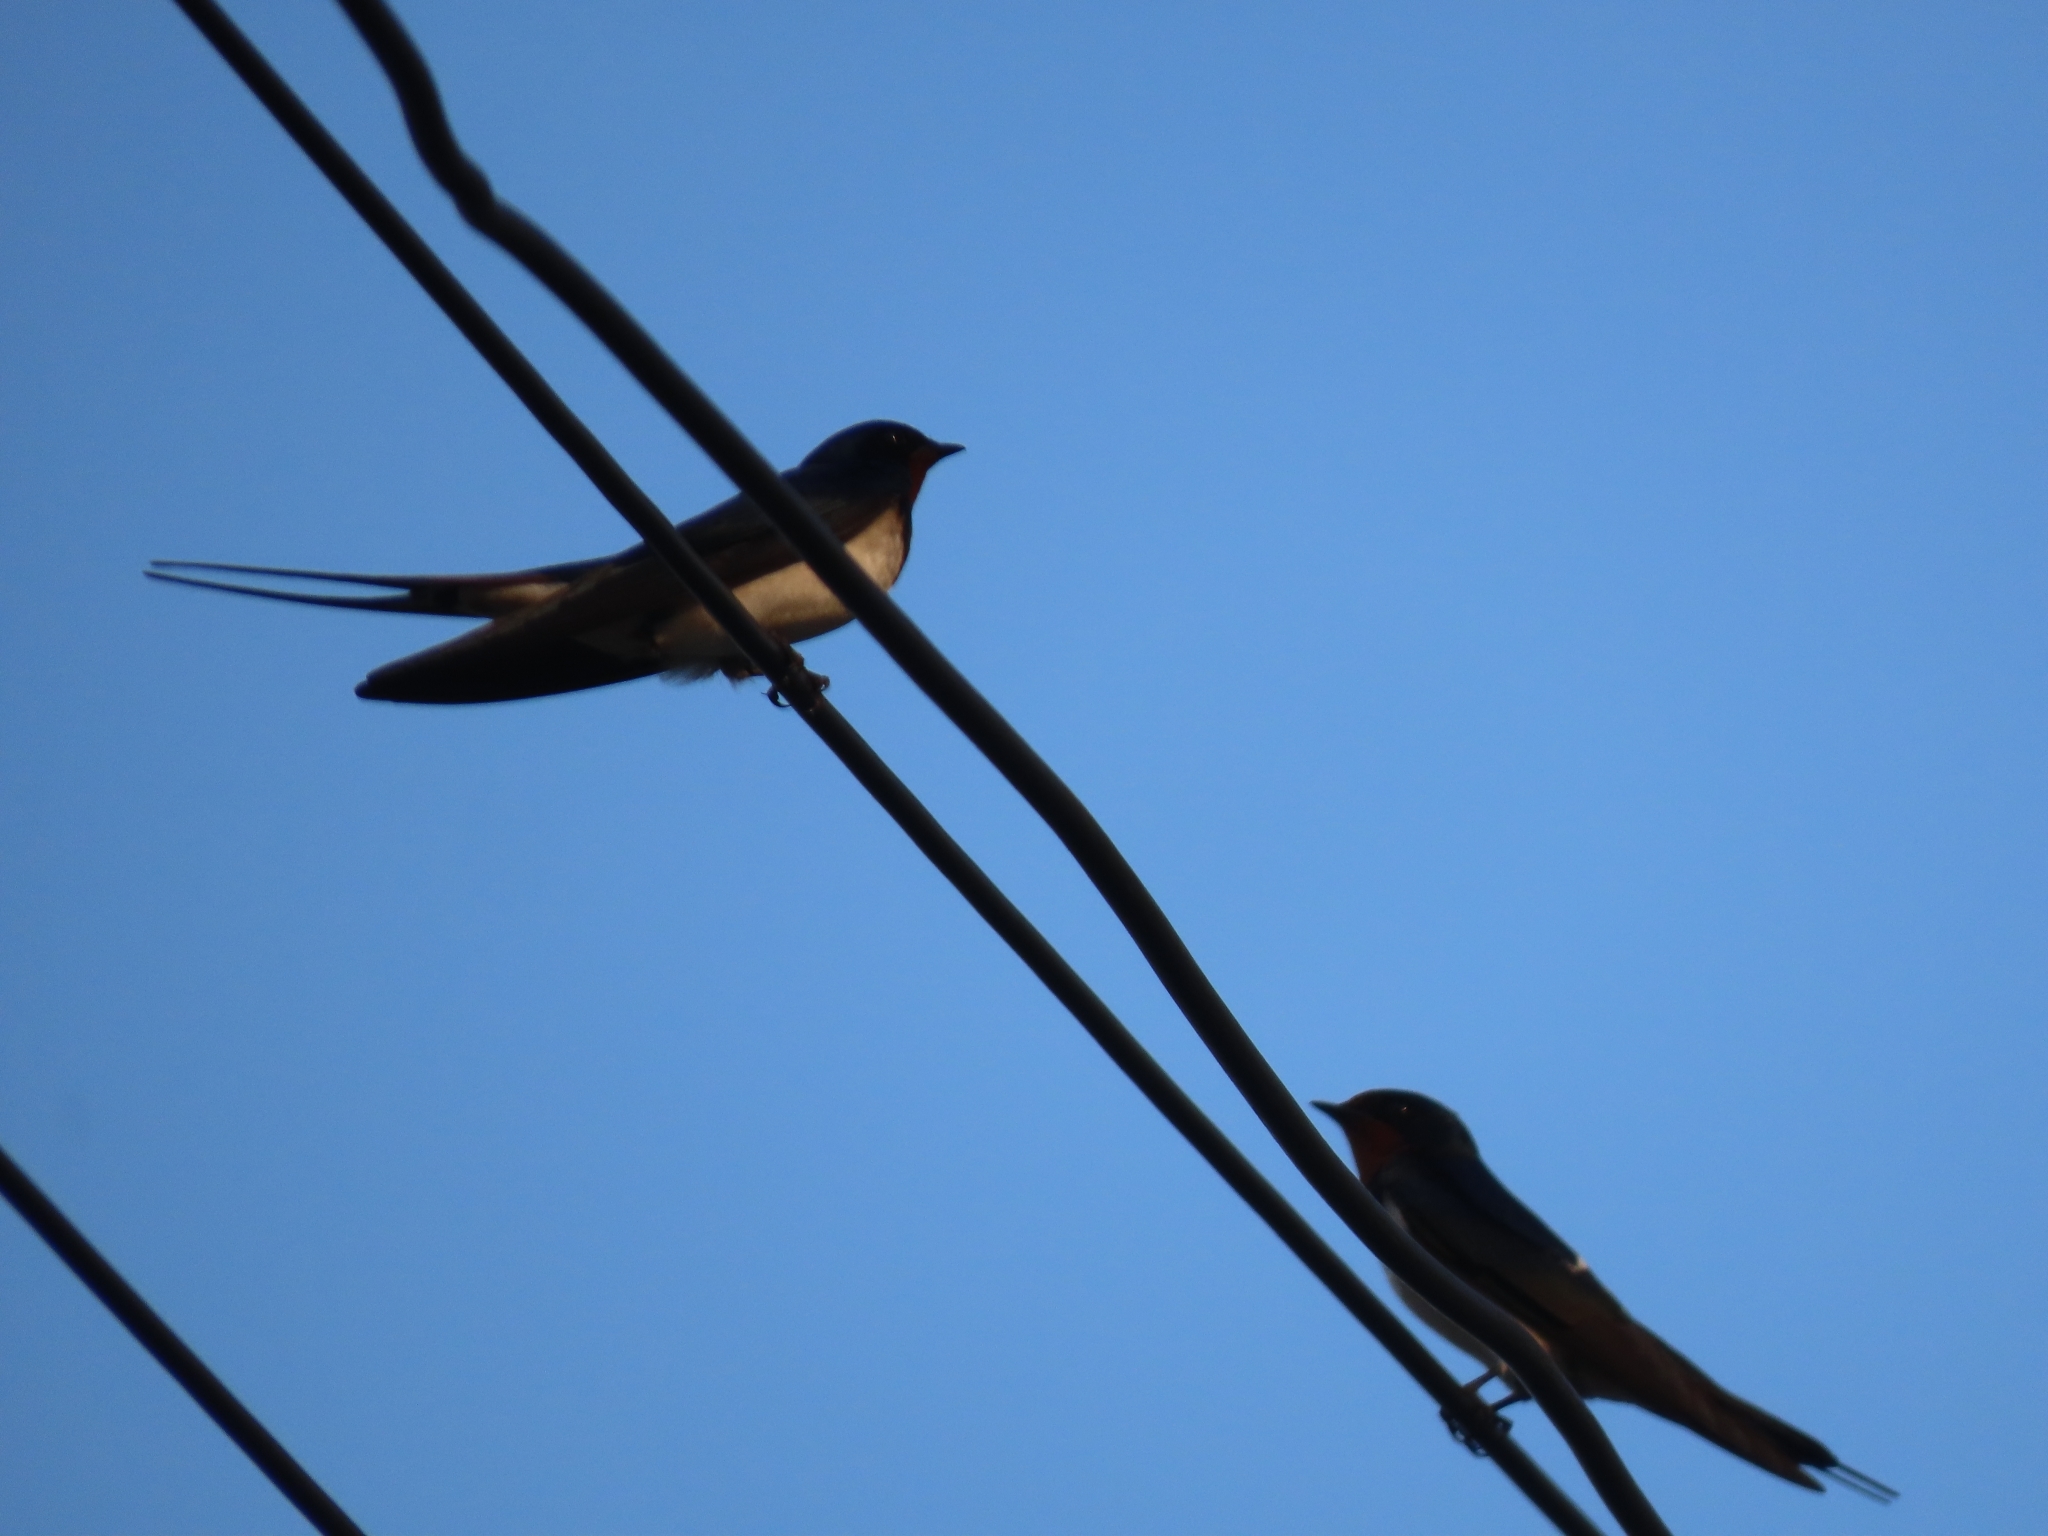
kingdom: Animalia
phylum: Chordata
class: Aves
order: Passeriformes
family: Hirundinidae
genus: Hirundo
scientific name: Hirundo rustica
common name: Barn swallow
